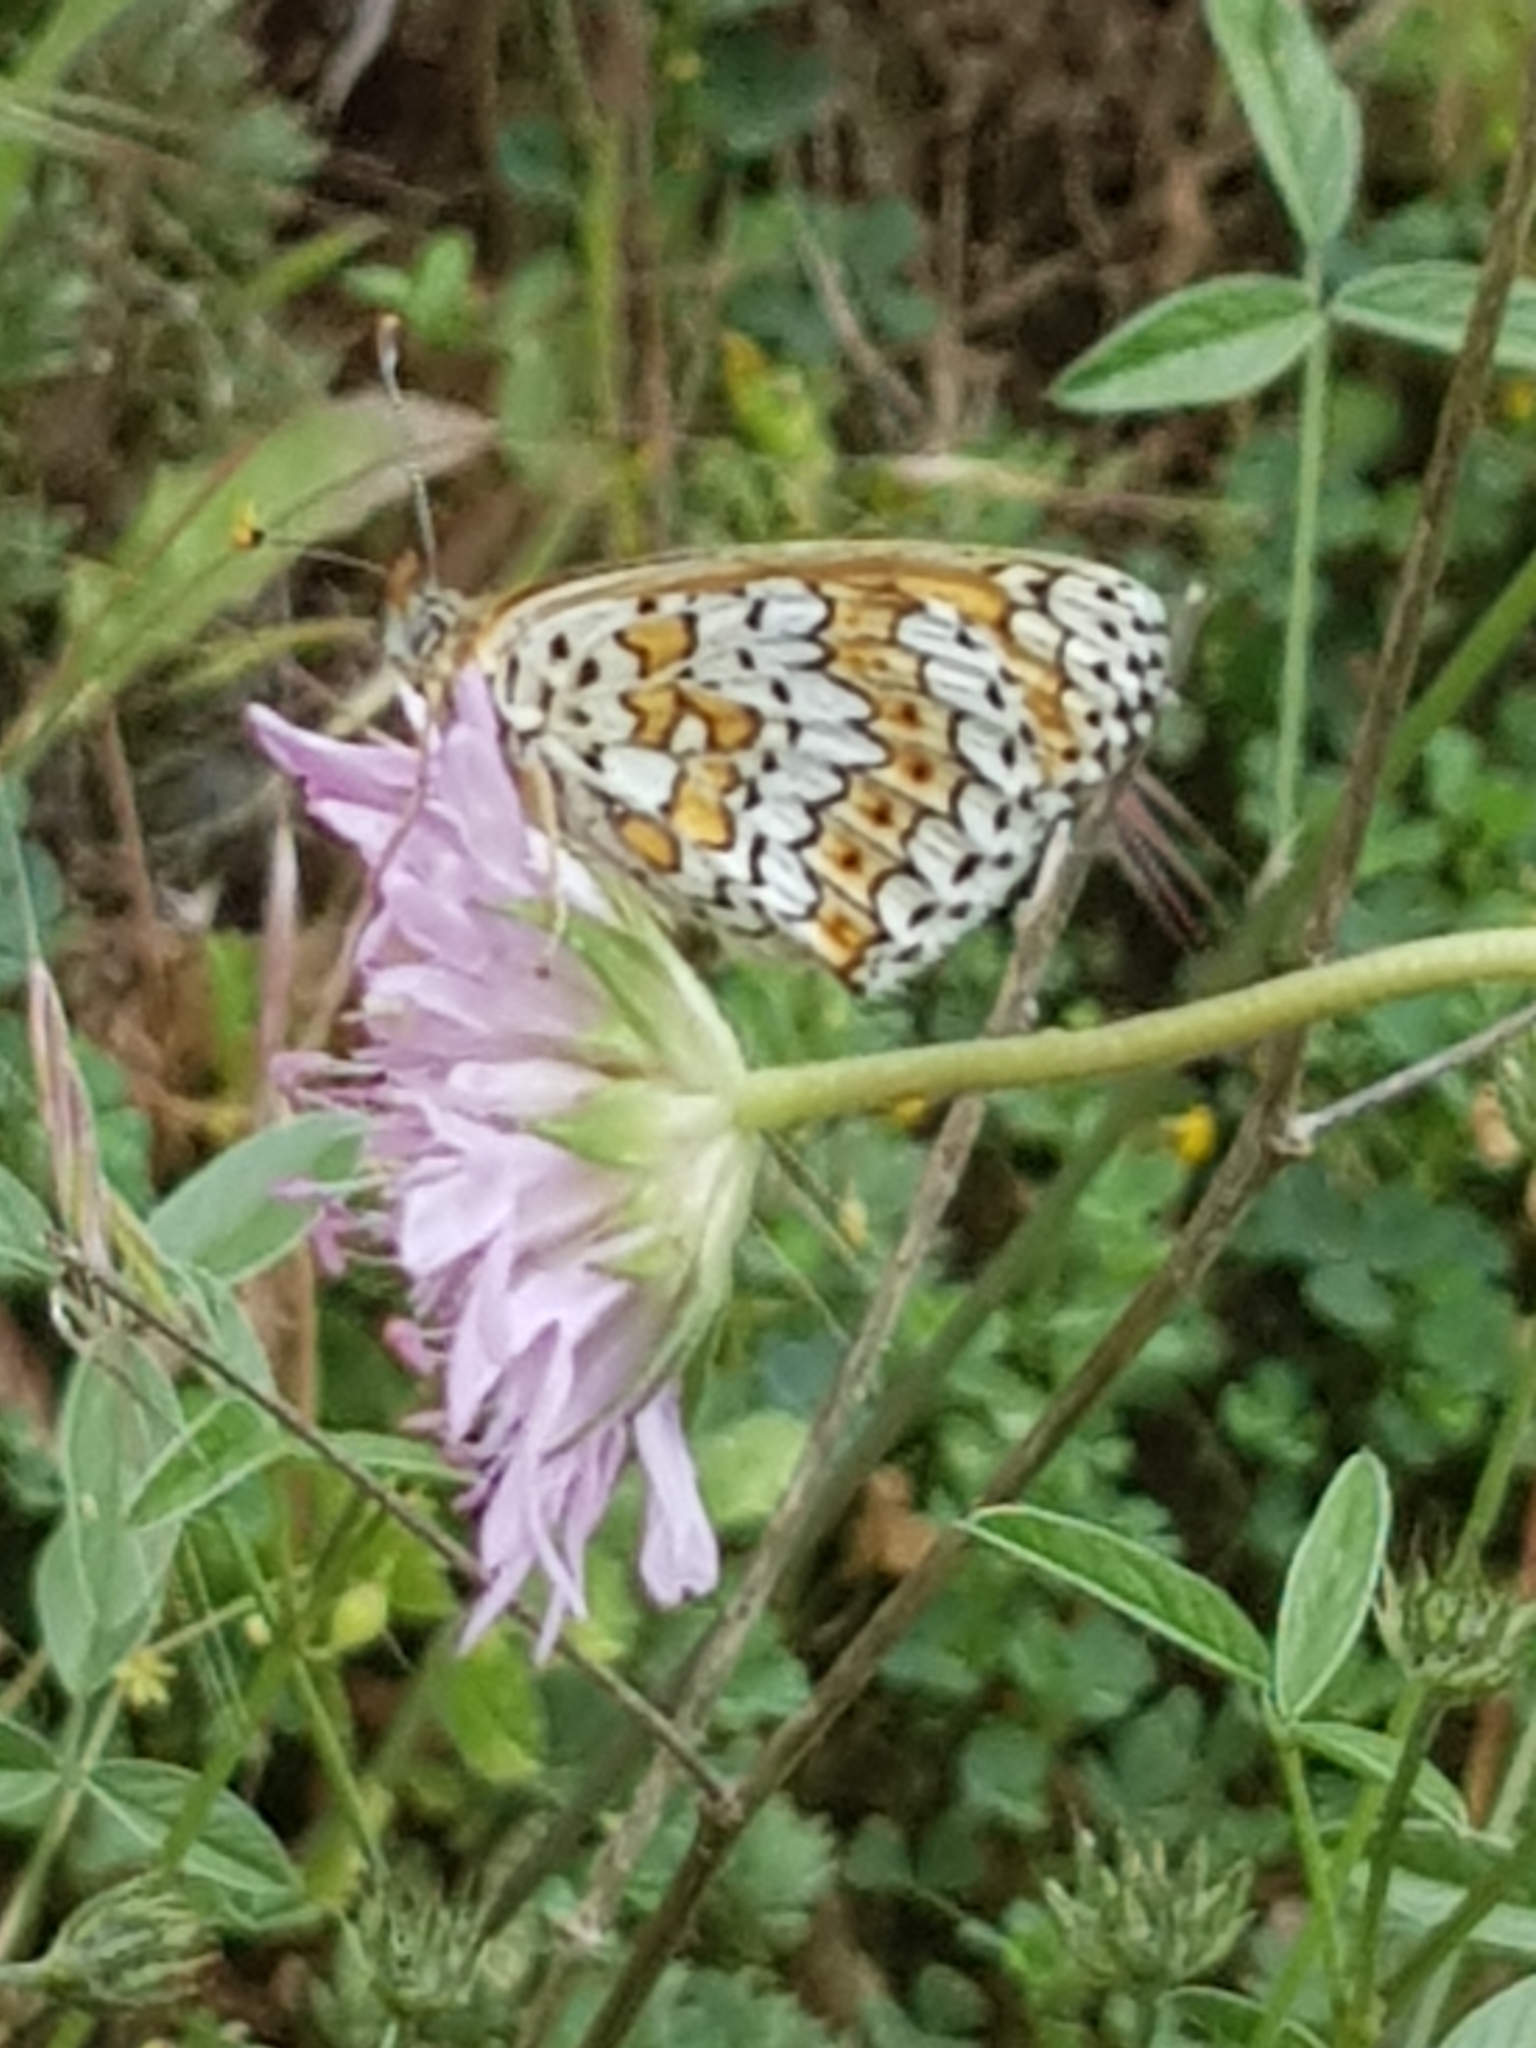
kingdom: Animalia
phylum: Arthropoda
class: Insecta
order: Lepidoptera
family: Nymphalidae
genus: Melitaea
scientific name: Melitaea cinxia
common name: Glanville fritillary
